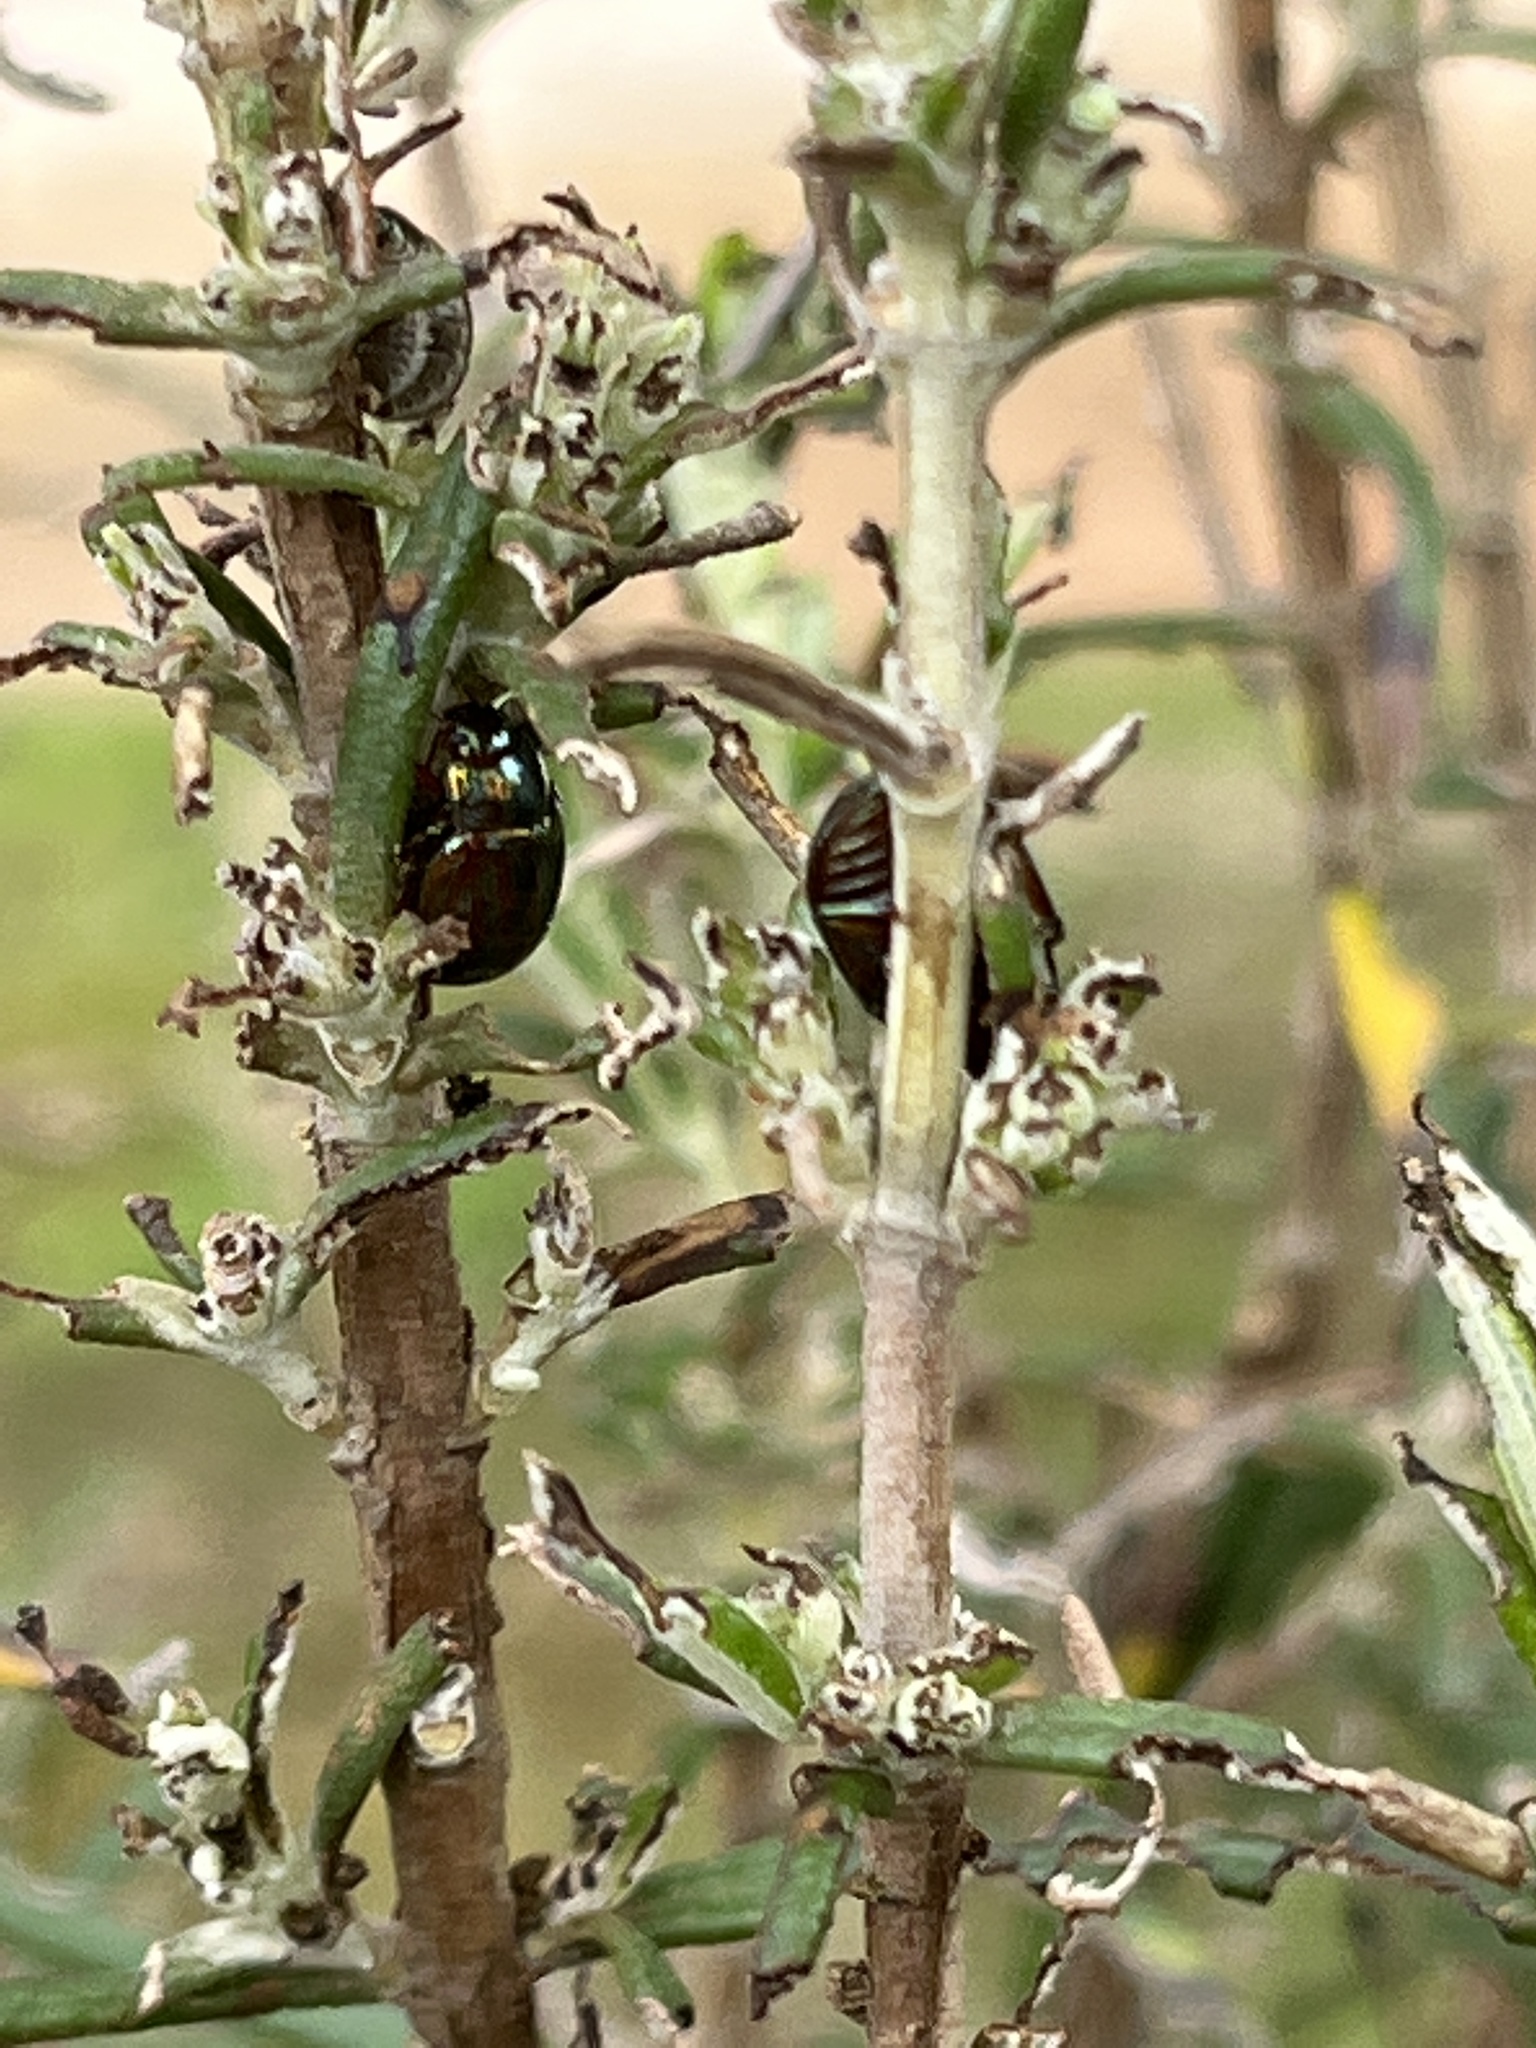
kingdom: Animalia
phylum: Arthropoda
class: Insecta
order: Coleoptera
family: Chrysomelidae
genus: Chrysolina
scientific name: Chrysolina americana
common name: Rosemary beetle
